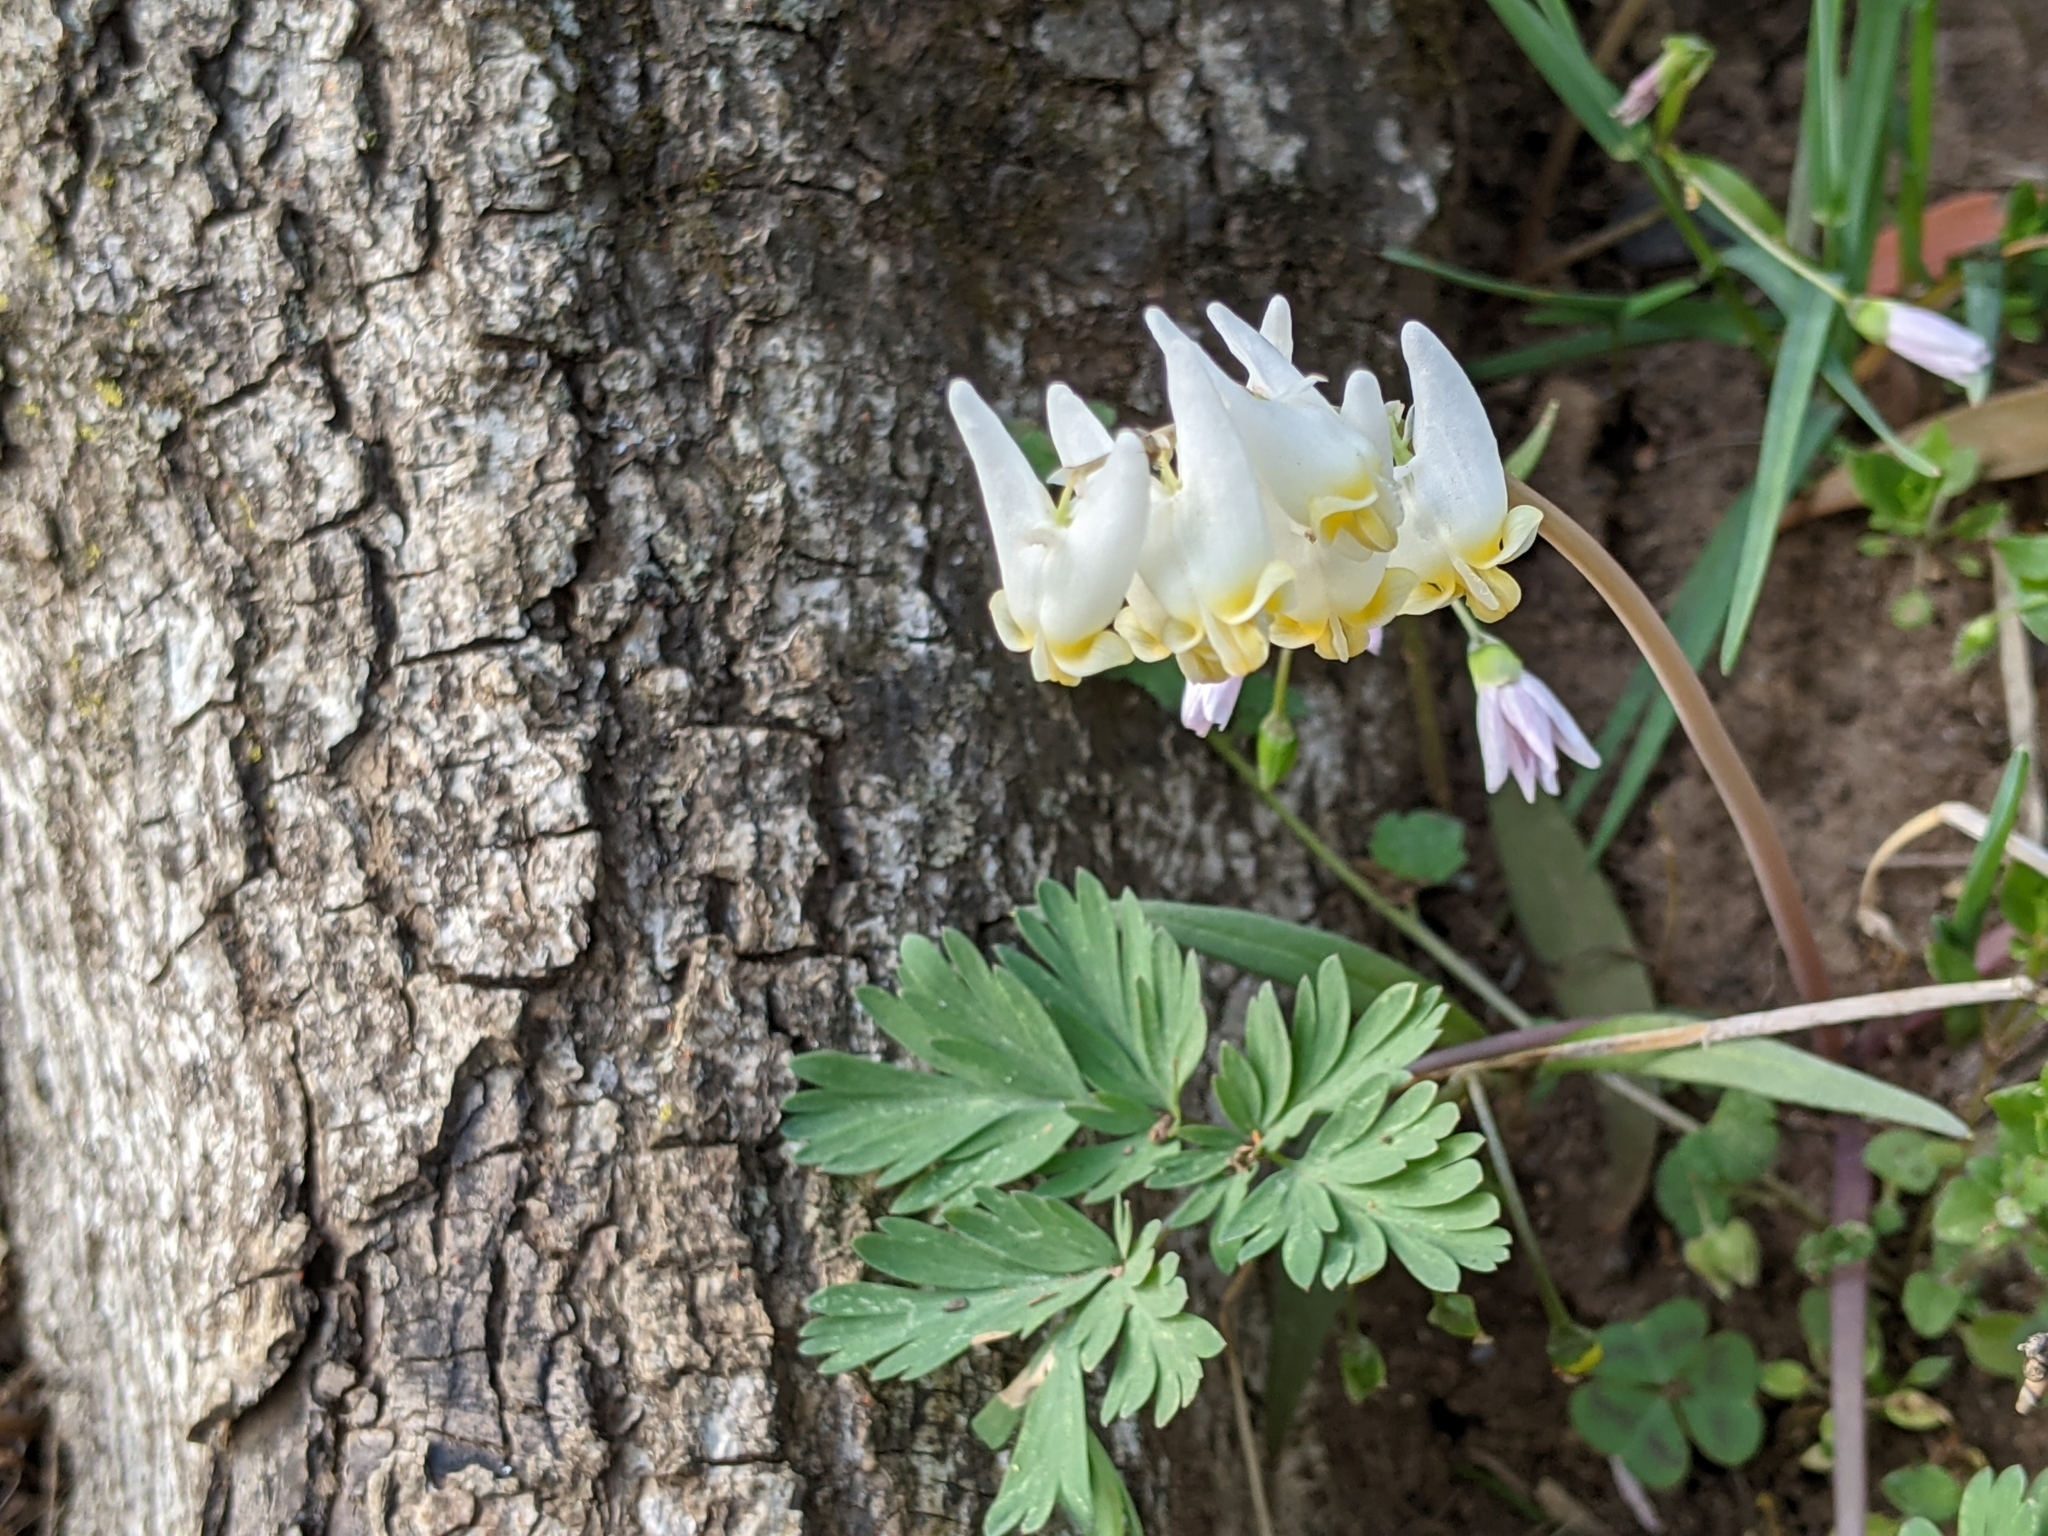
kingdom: Plantae
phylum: Tracheophyta
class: Magnoliopsida
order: Ranunculales
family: Papaveraceae
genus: Dicentra
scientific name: Dicentra cucullaria
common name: Dutchman's breeches
